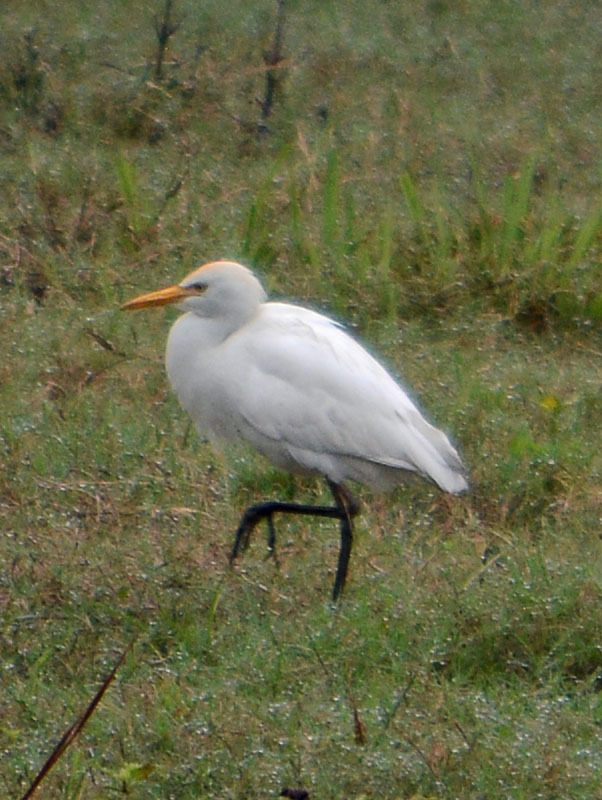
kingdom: Animalia
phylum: Chordata
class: Aves
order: Pelecaniformes
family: Ardeidae
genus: Bubulcus
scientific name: Bubulcus ibis
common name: Cattle egret
